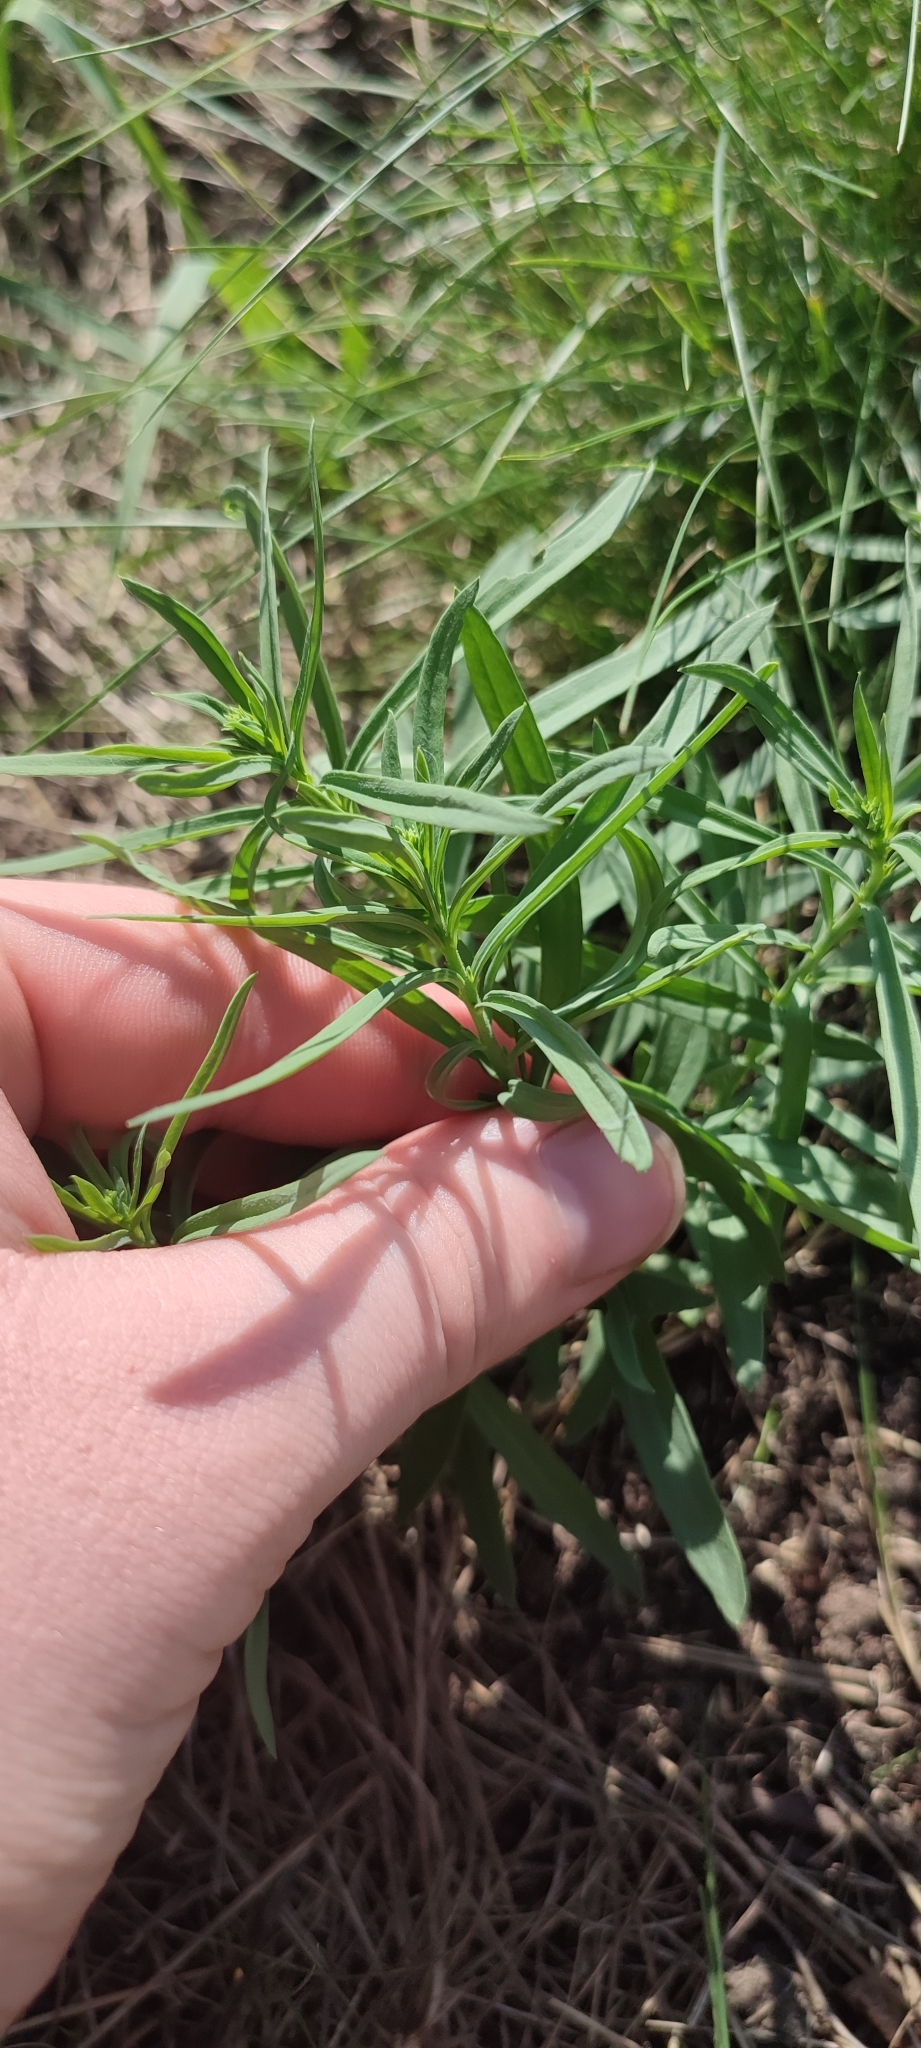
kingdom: Plantae
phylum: Tracheophyta
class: Magnoliopsida
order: Caryophyllales
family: Amaranthaceae
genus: Bassia
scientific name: Bassia scoparia
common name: Belvedere
